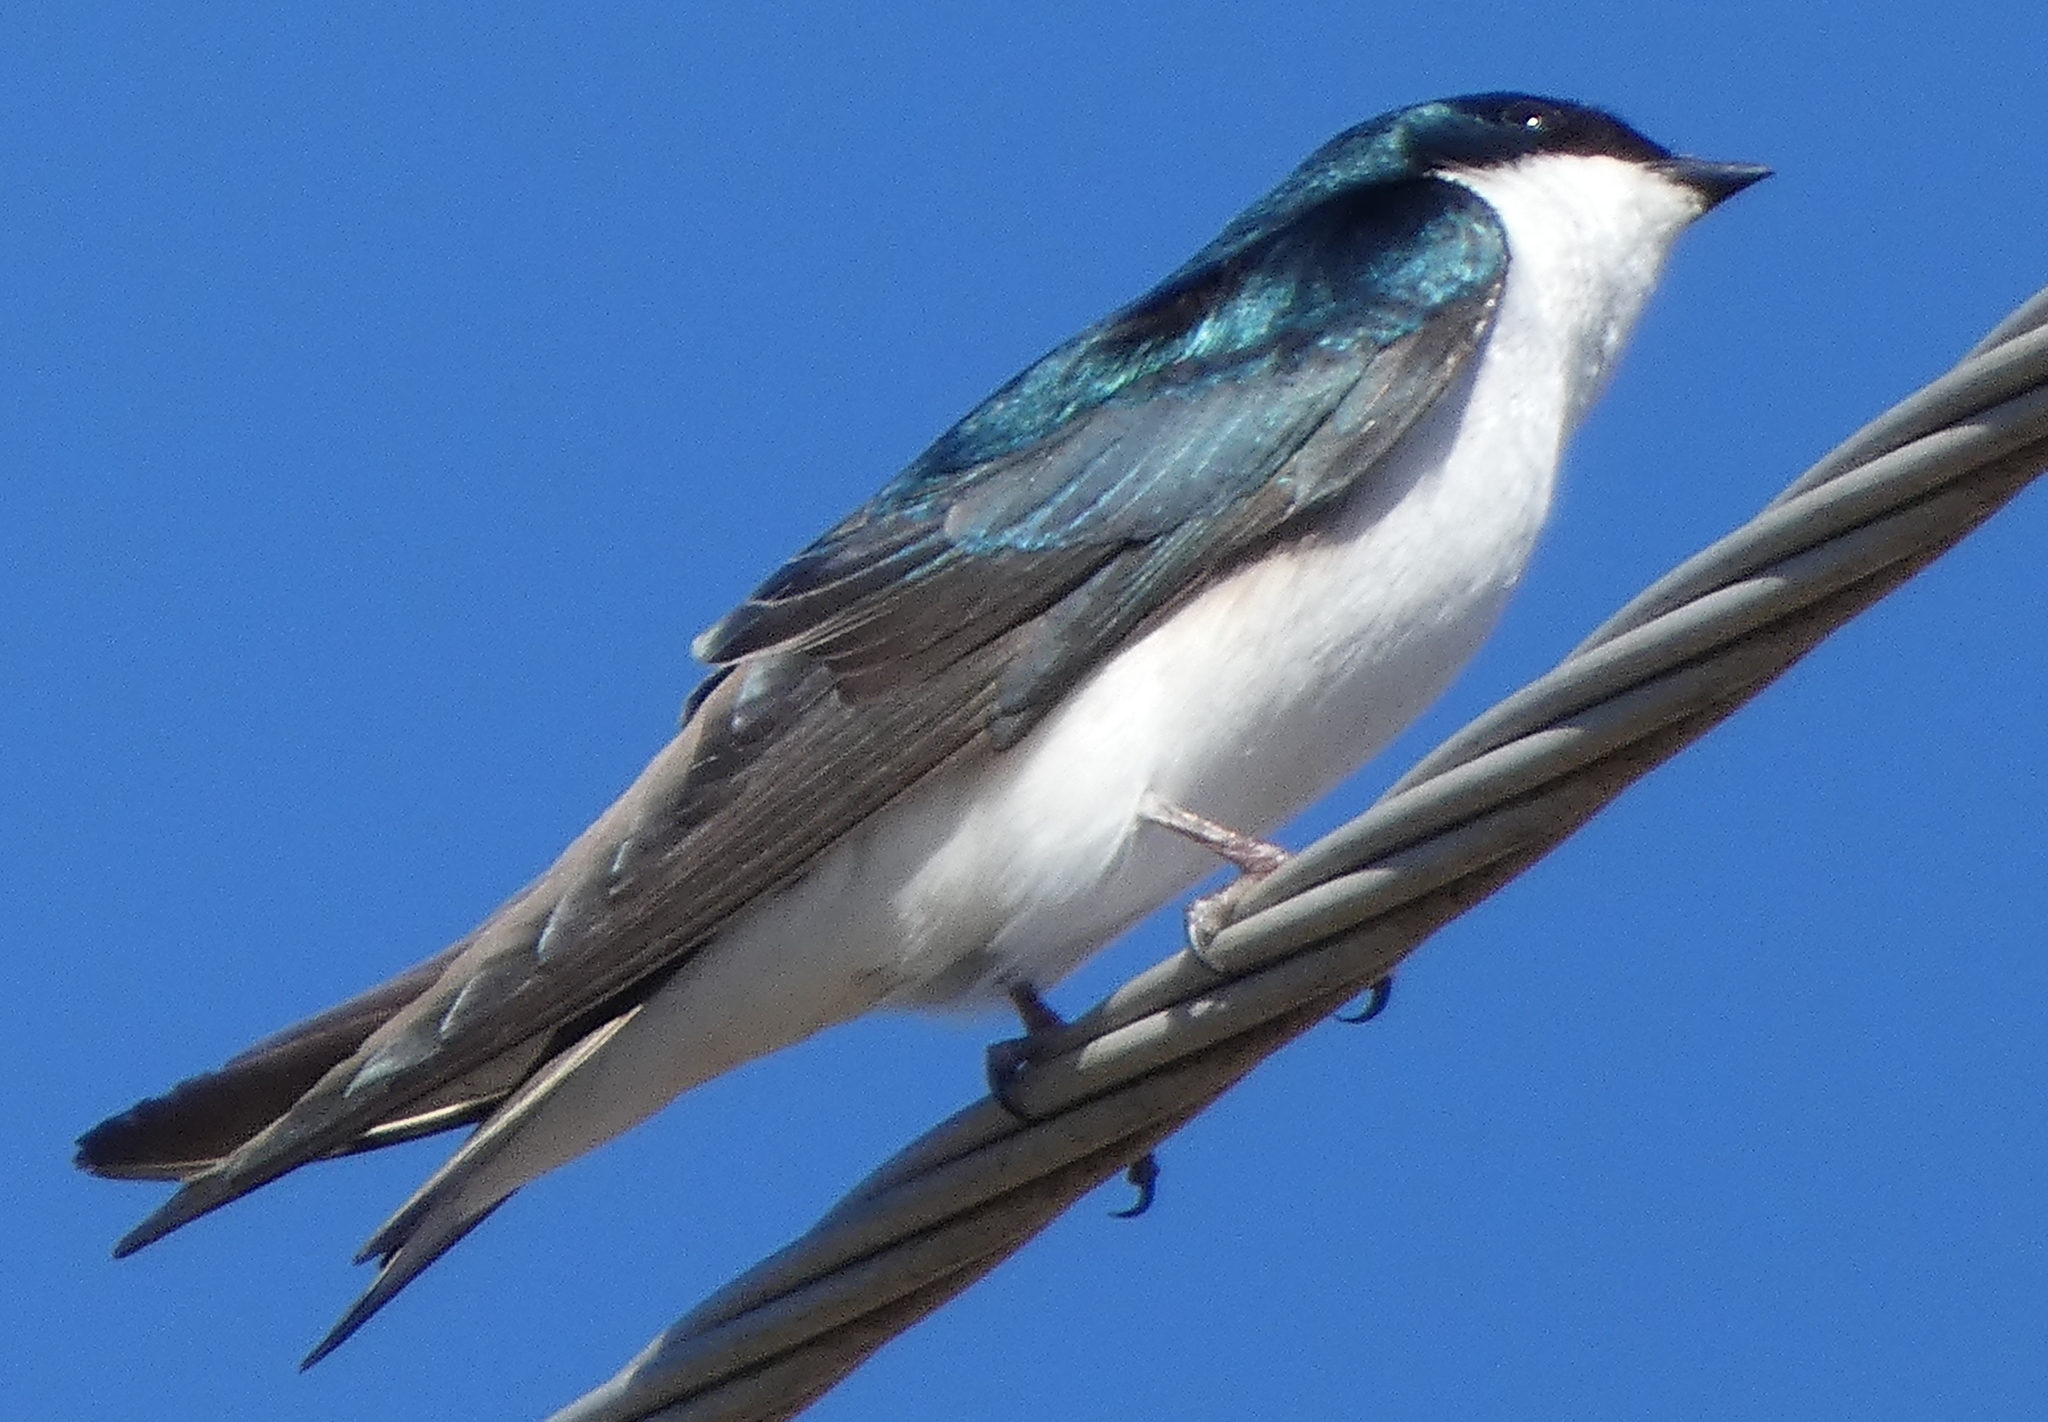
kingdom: Animalia
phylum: Chordata
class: Aves
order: Passeriformes
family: Hirundinidae
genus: Tachycineta
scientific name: Tachycineta bicolor
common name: Tree swallow
